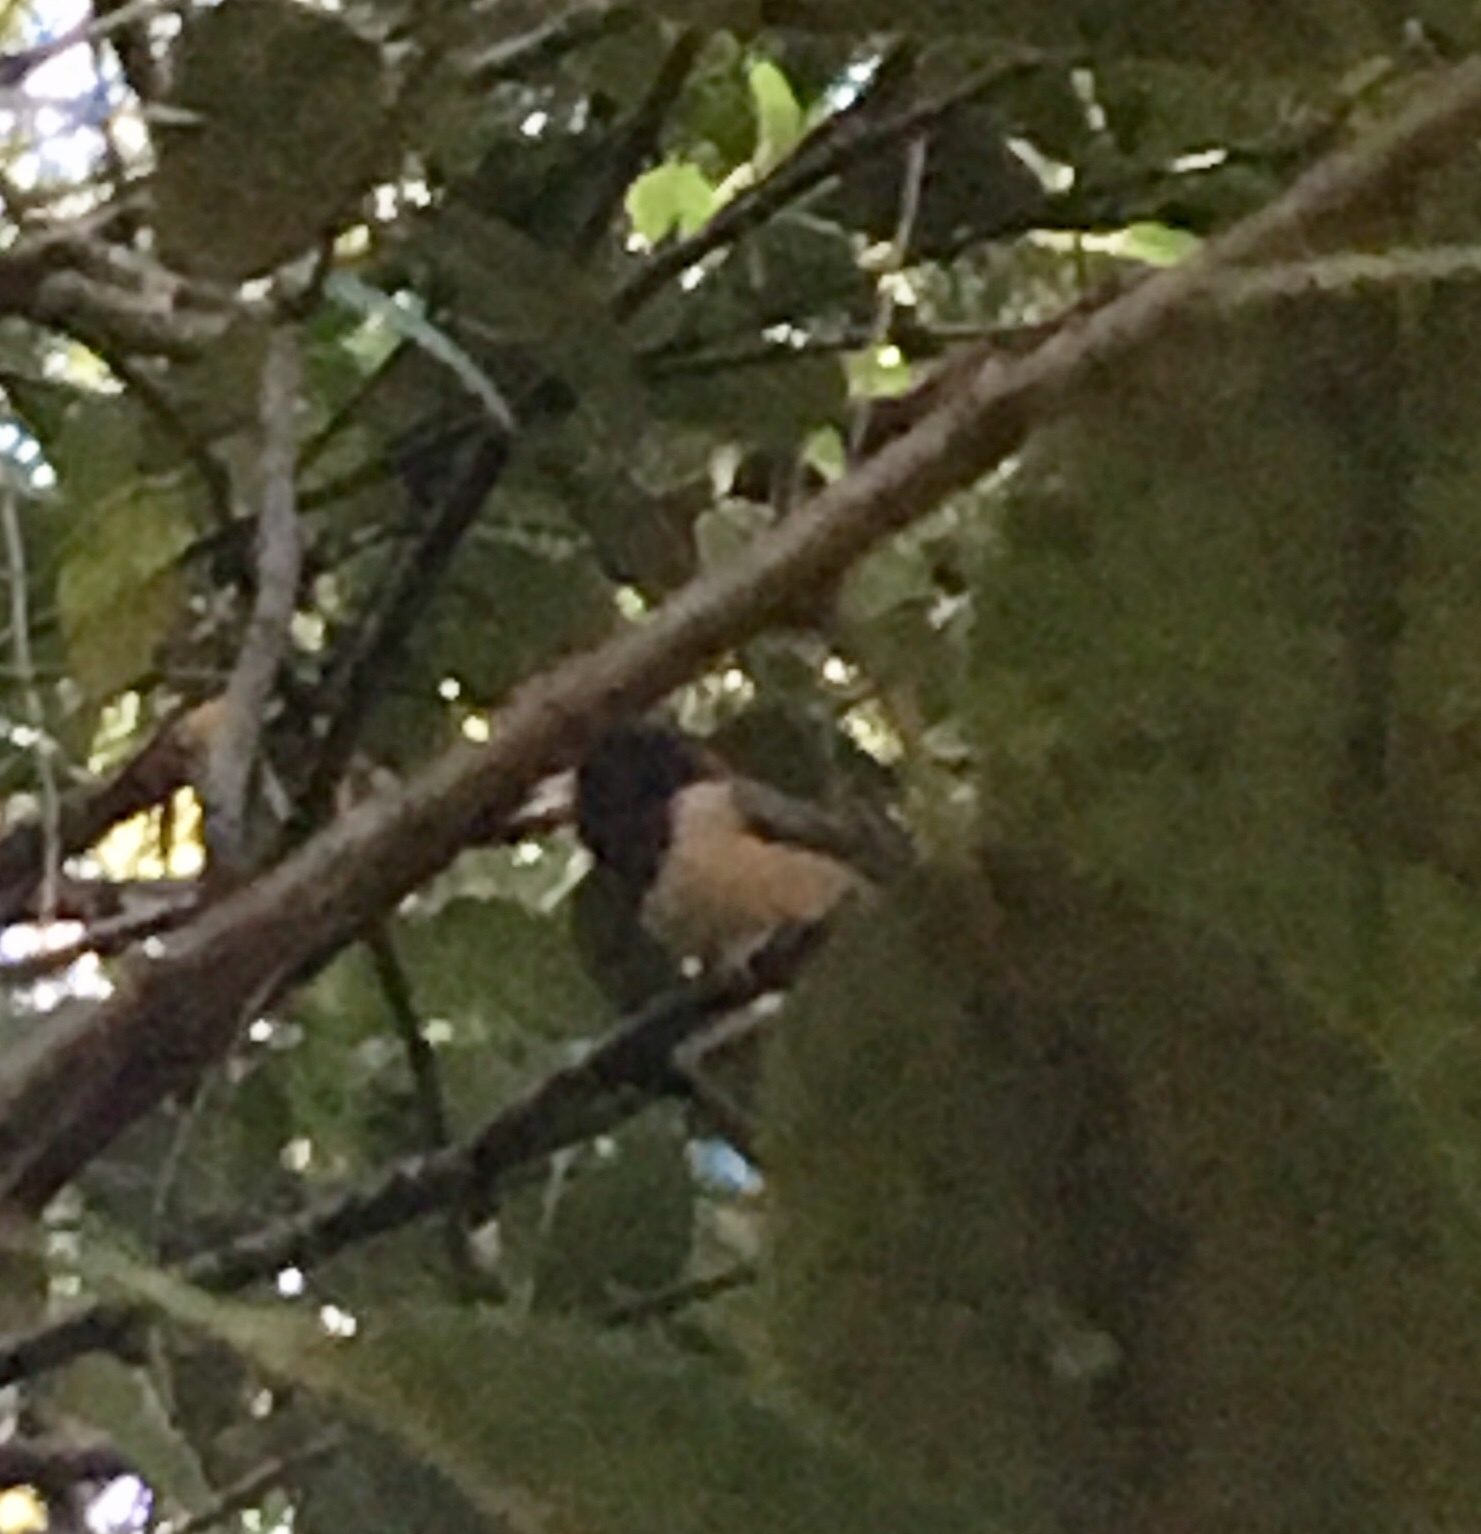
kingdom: Animalia
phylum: Chordata
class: Aves
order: Passeriformes
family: Passerellidae
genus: Junco
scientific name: Junco hyemalis
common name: Dark-eyed junco
